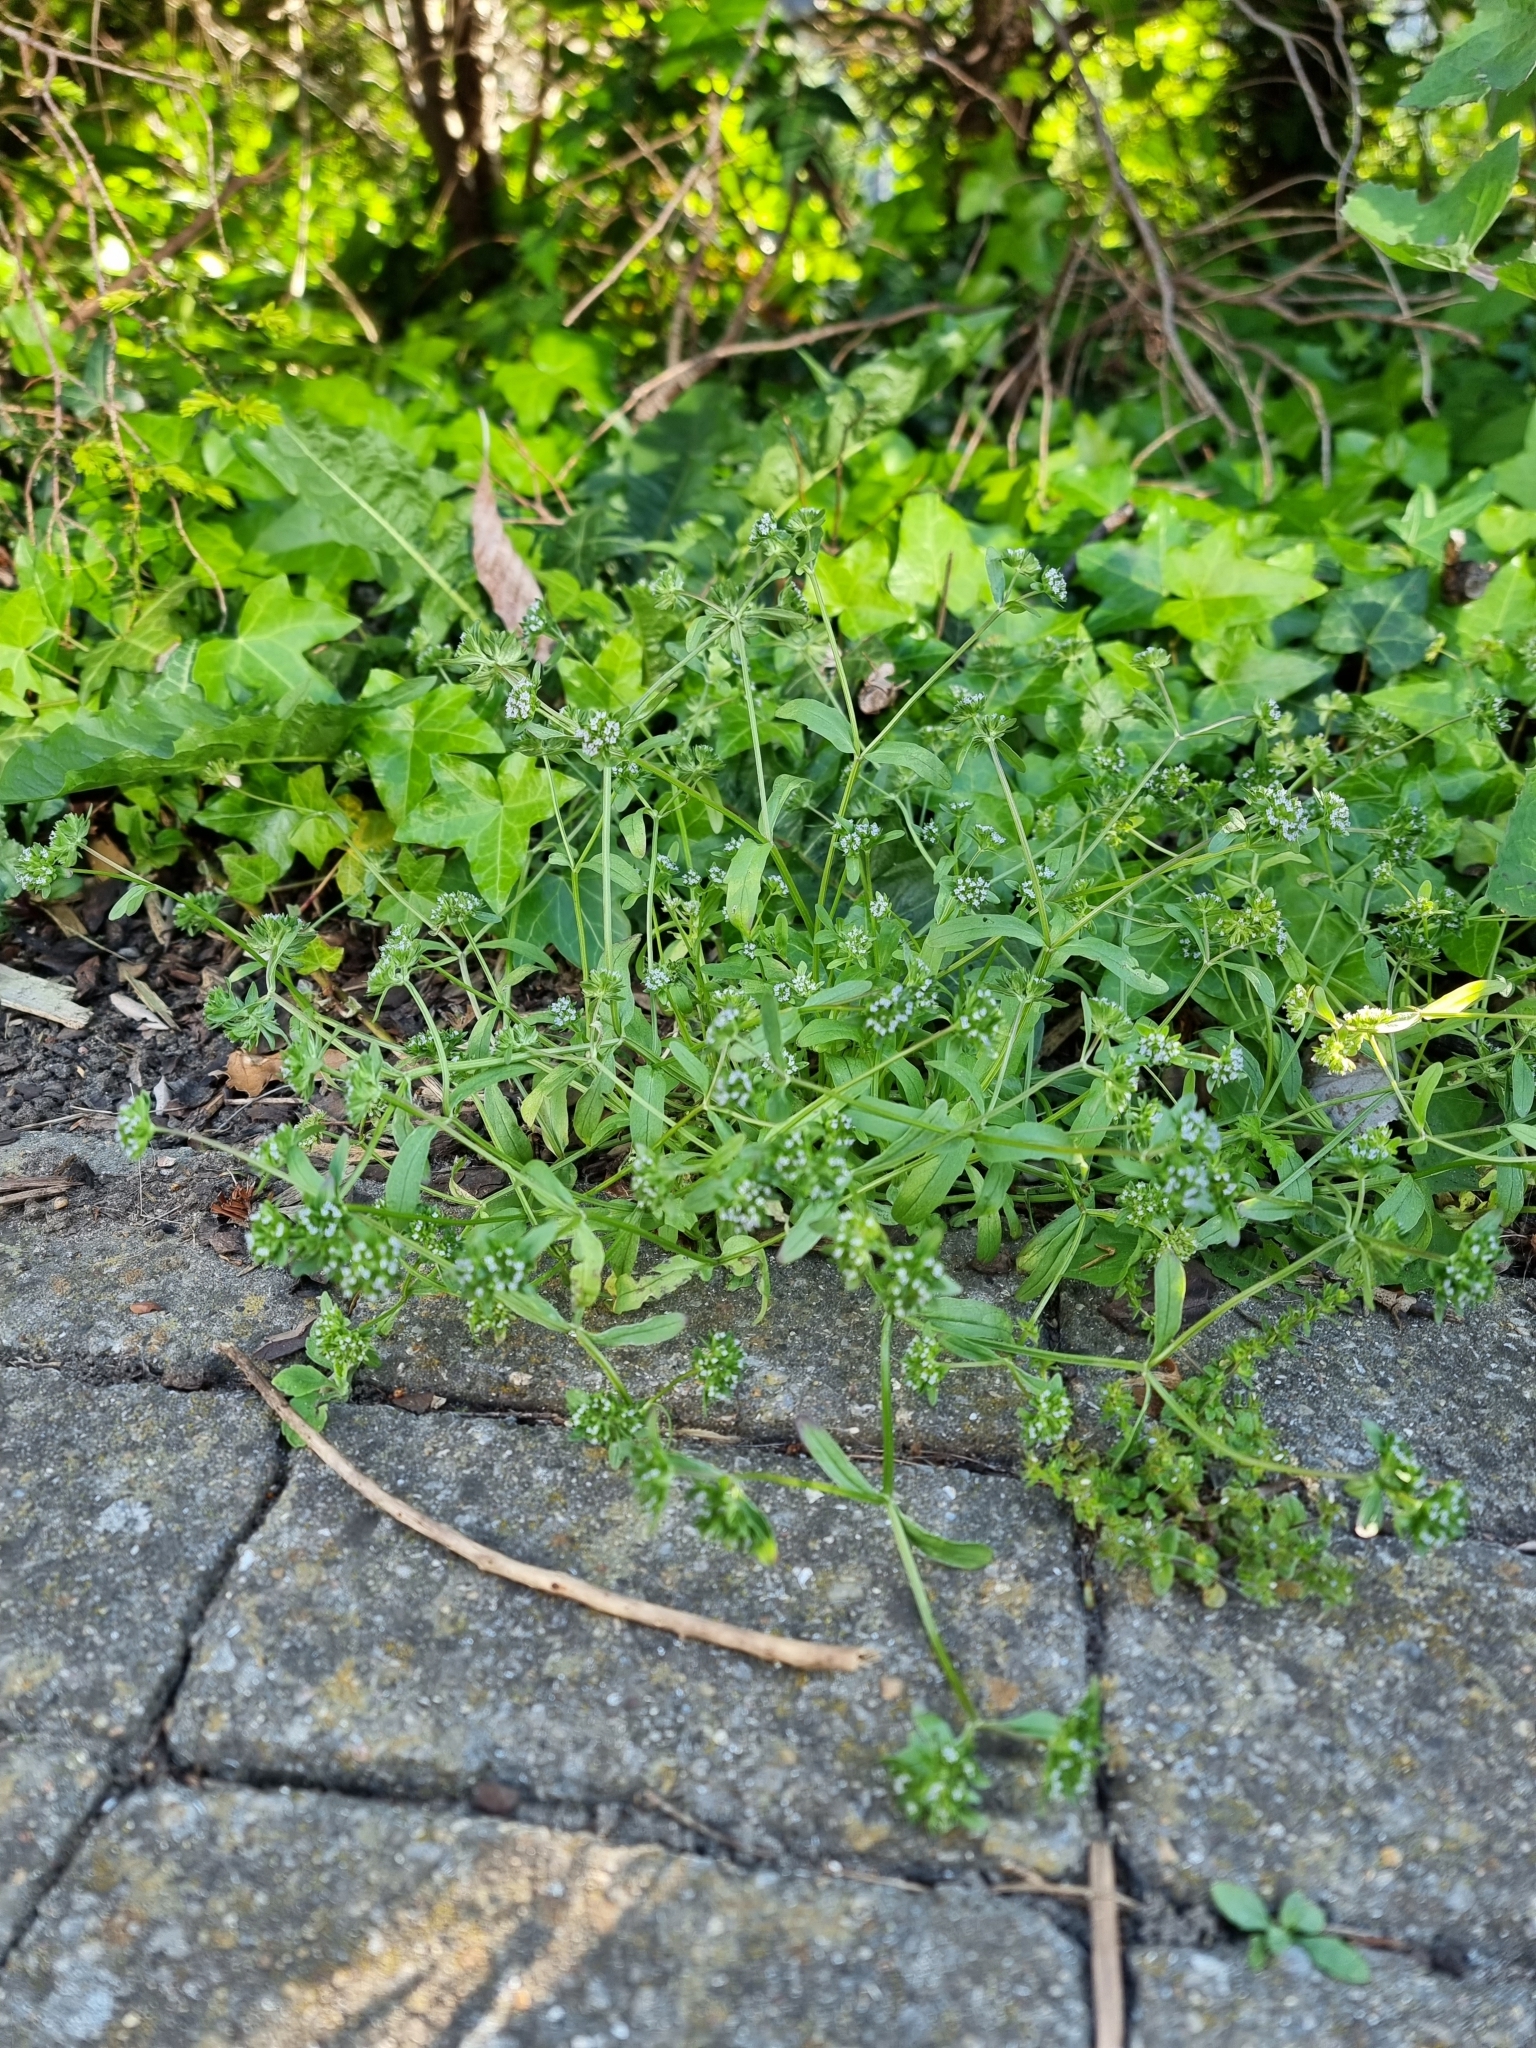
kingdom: Plantae
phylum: Tracheophyta
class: Magnoliopsida
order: Dipsacales
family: Caprifoliaceae
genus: Valerianella
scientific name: Valerianella carinata
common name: Keeled-fruited cornsalad
